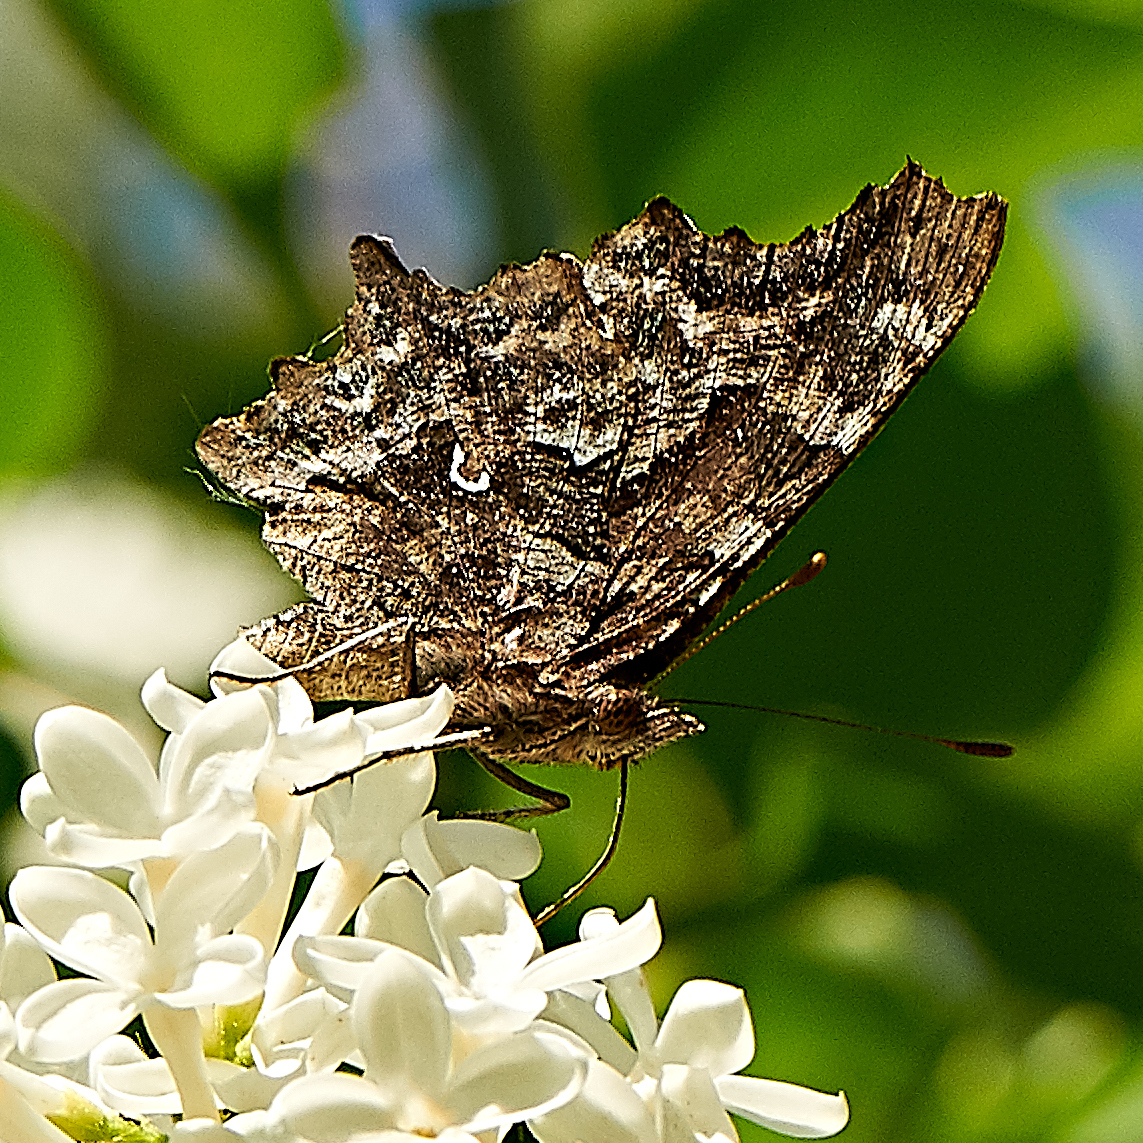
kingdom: Animalia
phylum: Arthropoda
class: Insecta
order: Lepidoptera
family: Nymphalidae
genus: Polygonia
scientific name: Polygonia c-album
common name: Comma
